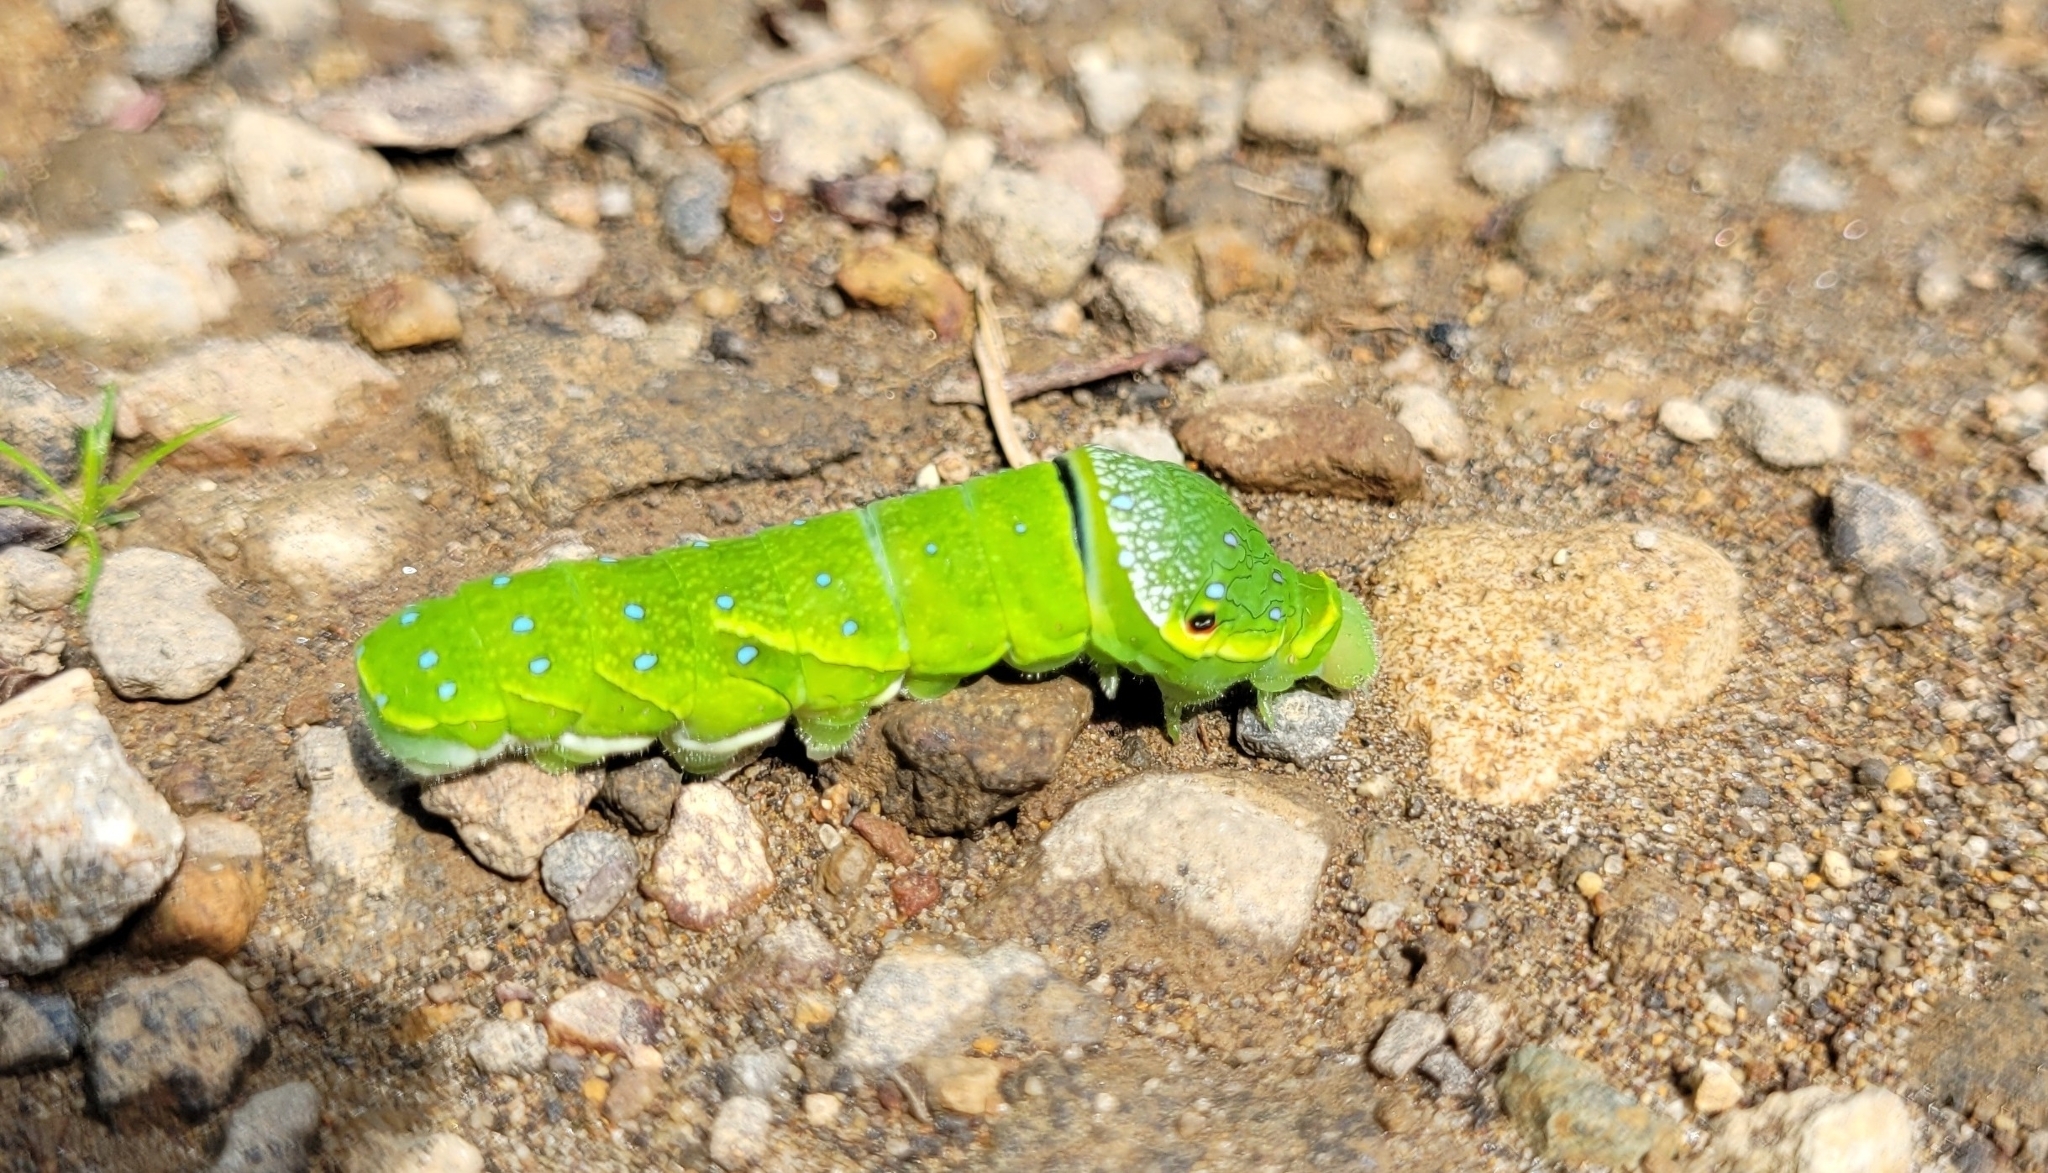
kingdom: Animalia
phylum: Arthropoda
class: Insecta
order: Lepidoptera
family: Papilionidae
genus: Papilio
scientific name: Papilio maackii
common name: Alpine black swallowtail
